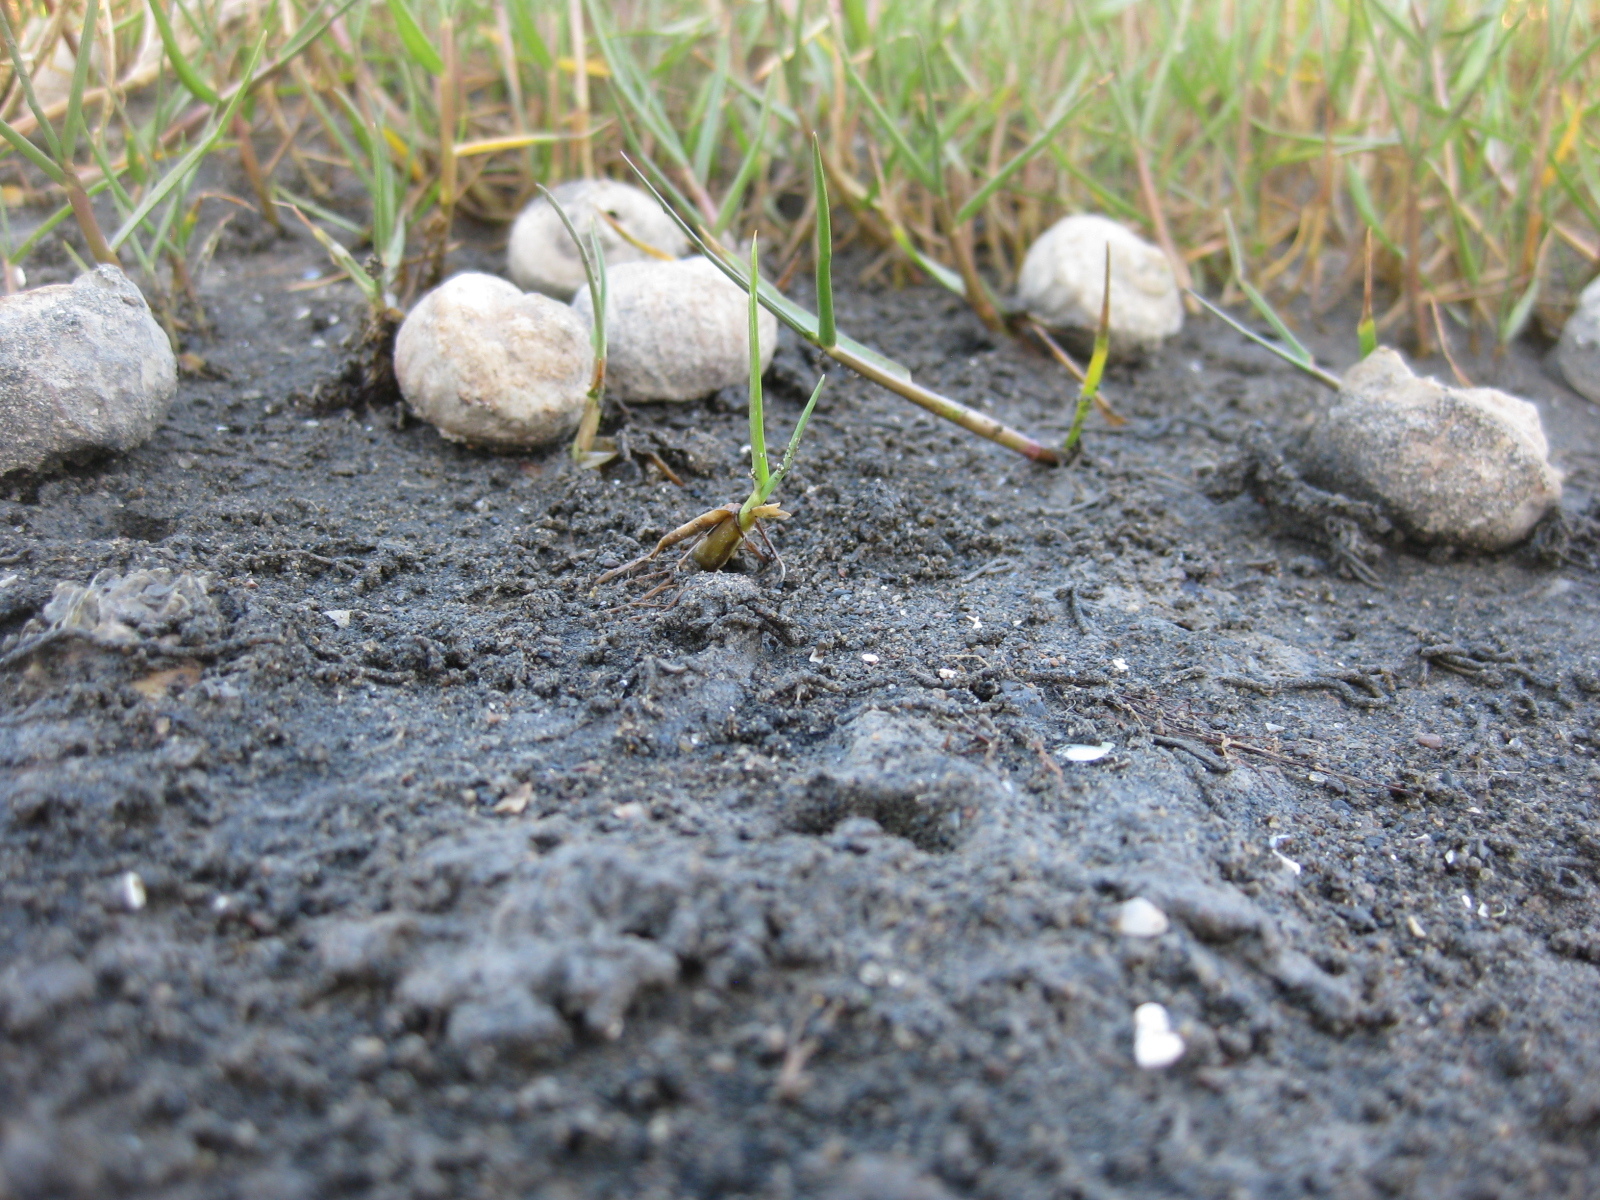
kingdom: Animalia
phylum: Mollusca
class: Gastropoda
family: Amphibolidae
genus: Amphibola
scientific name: Amphibola crenata
